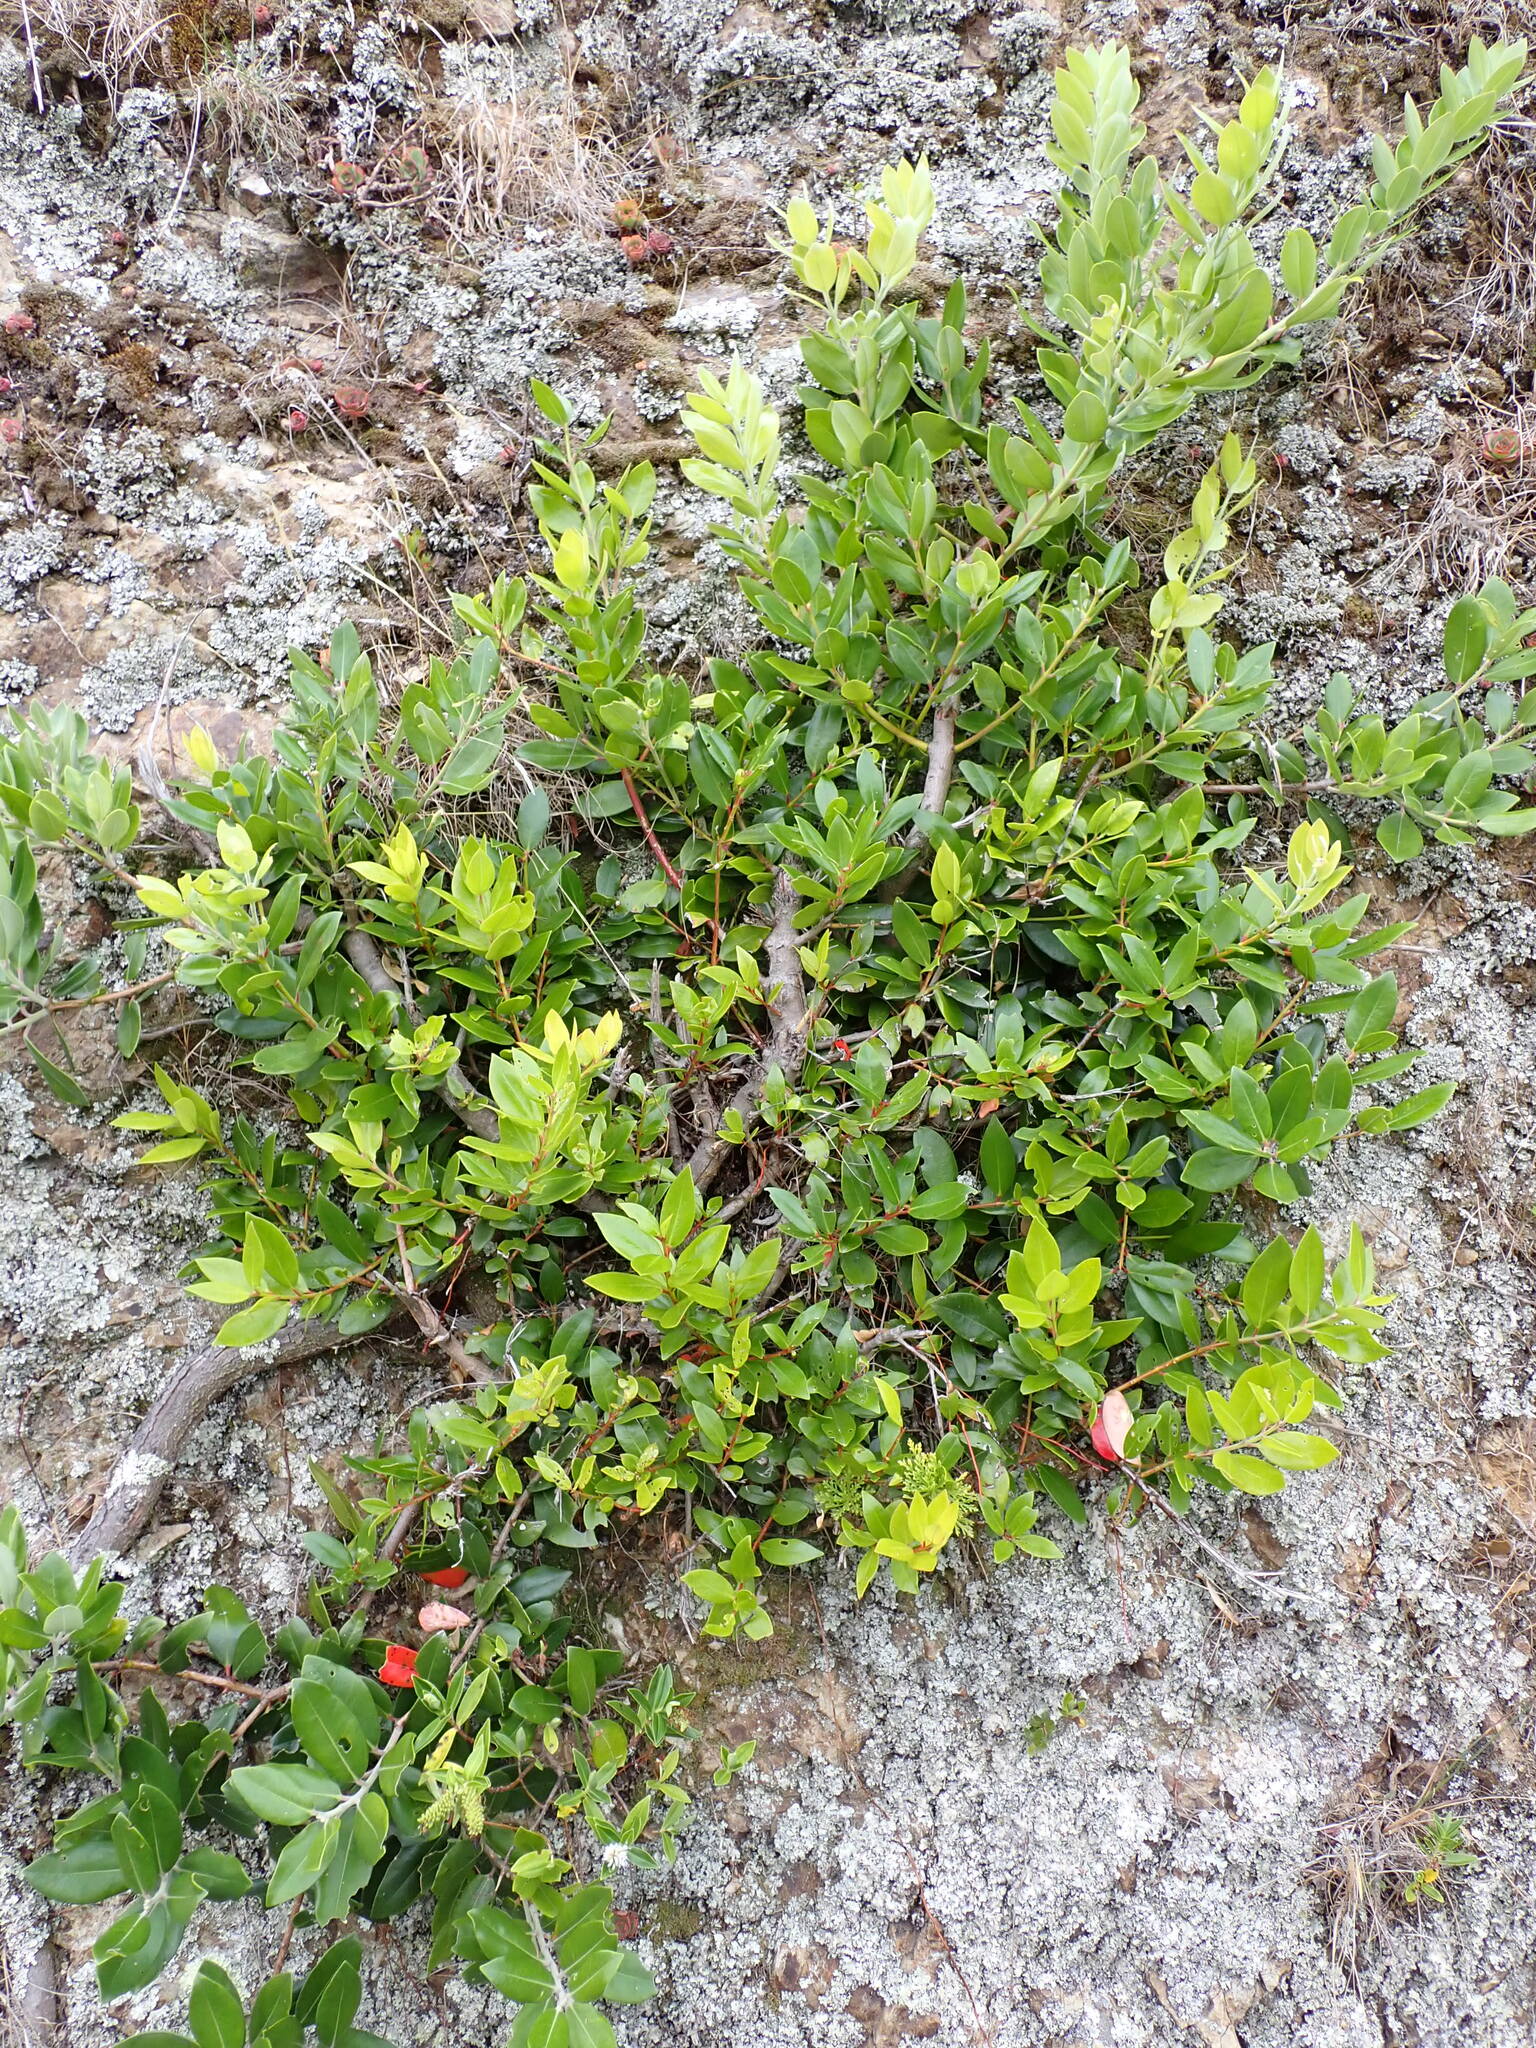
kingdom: Plantae
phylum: Tracheophyta
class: Magnoliopsida
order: Myrtales
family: Myrtaceae
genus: Metrosideros
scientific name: Metrosideros excelsa
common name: New zealand christmastree
